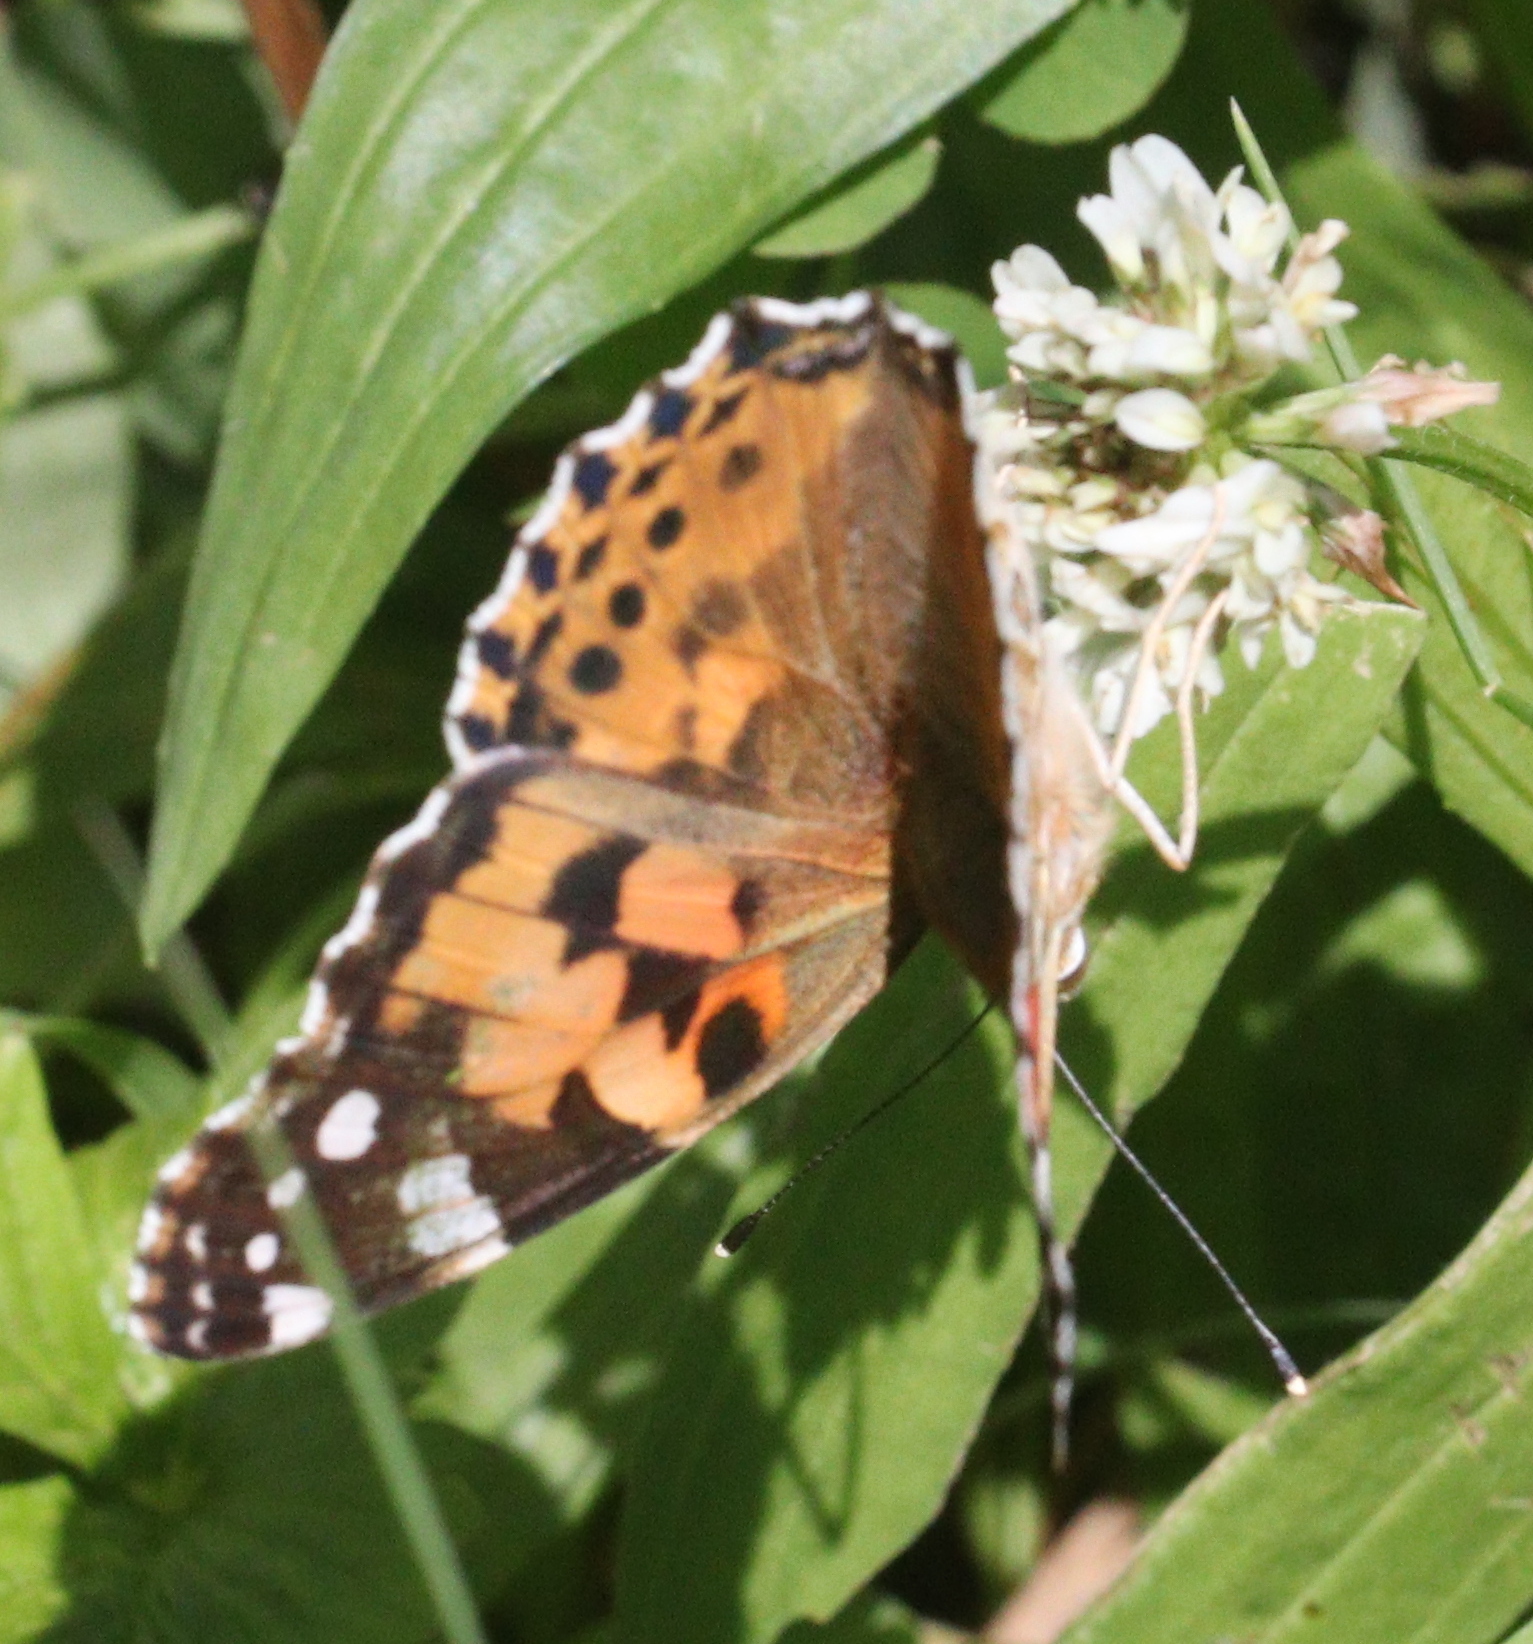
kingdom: Animalia
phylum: Arthropoda
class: Insecta
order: Lepidoptera
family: Nymphalidae
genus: Vanessa
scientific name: Vanessa cardui
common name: Painted lady
